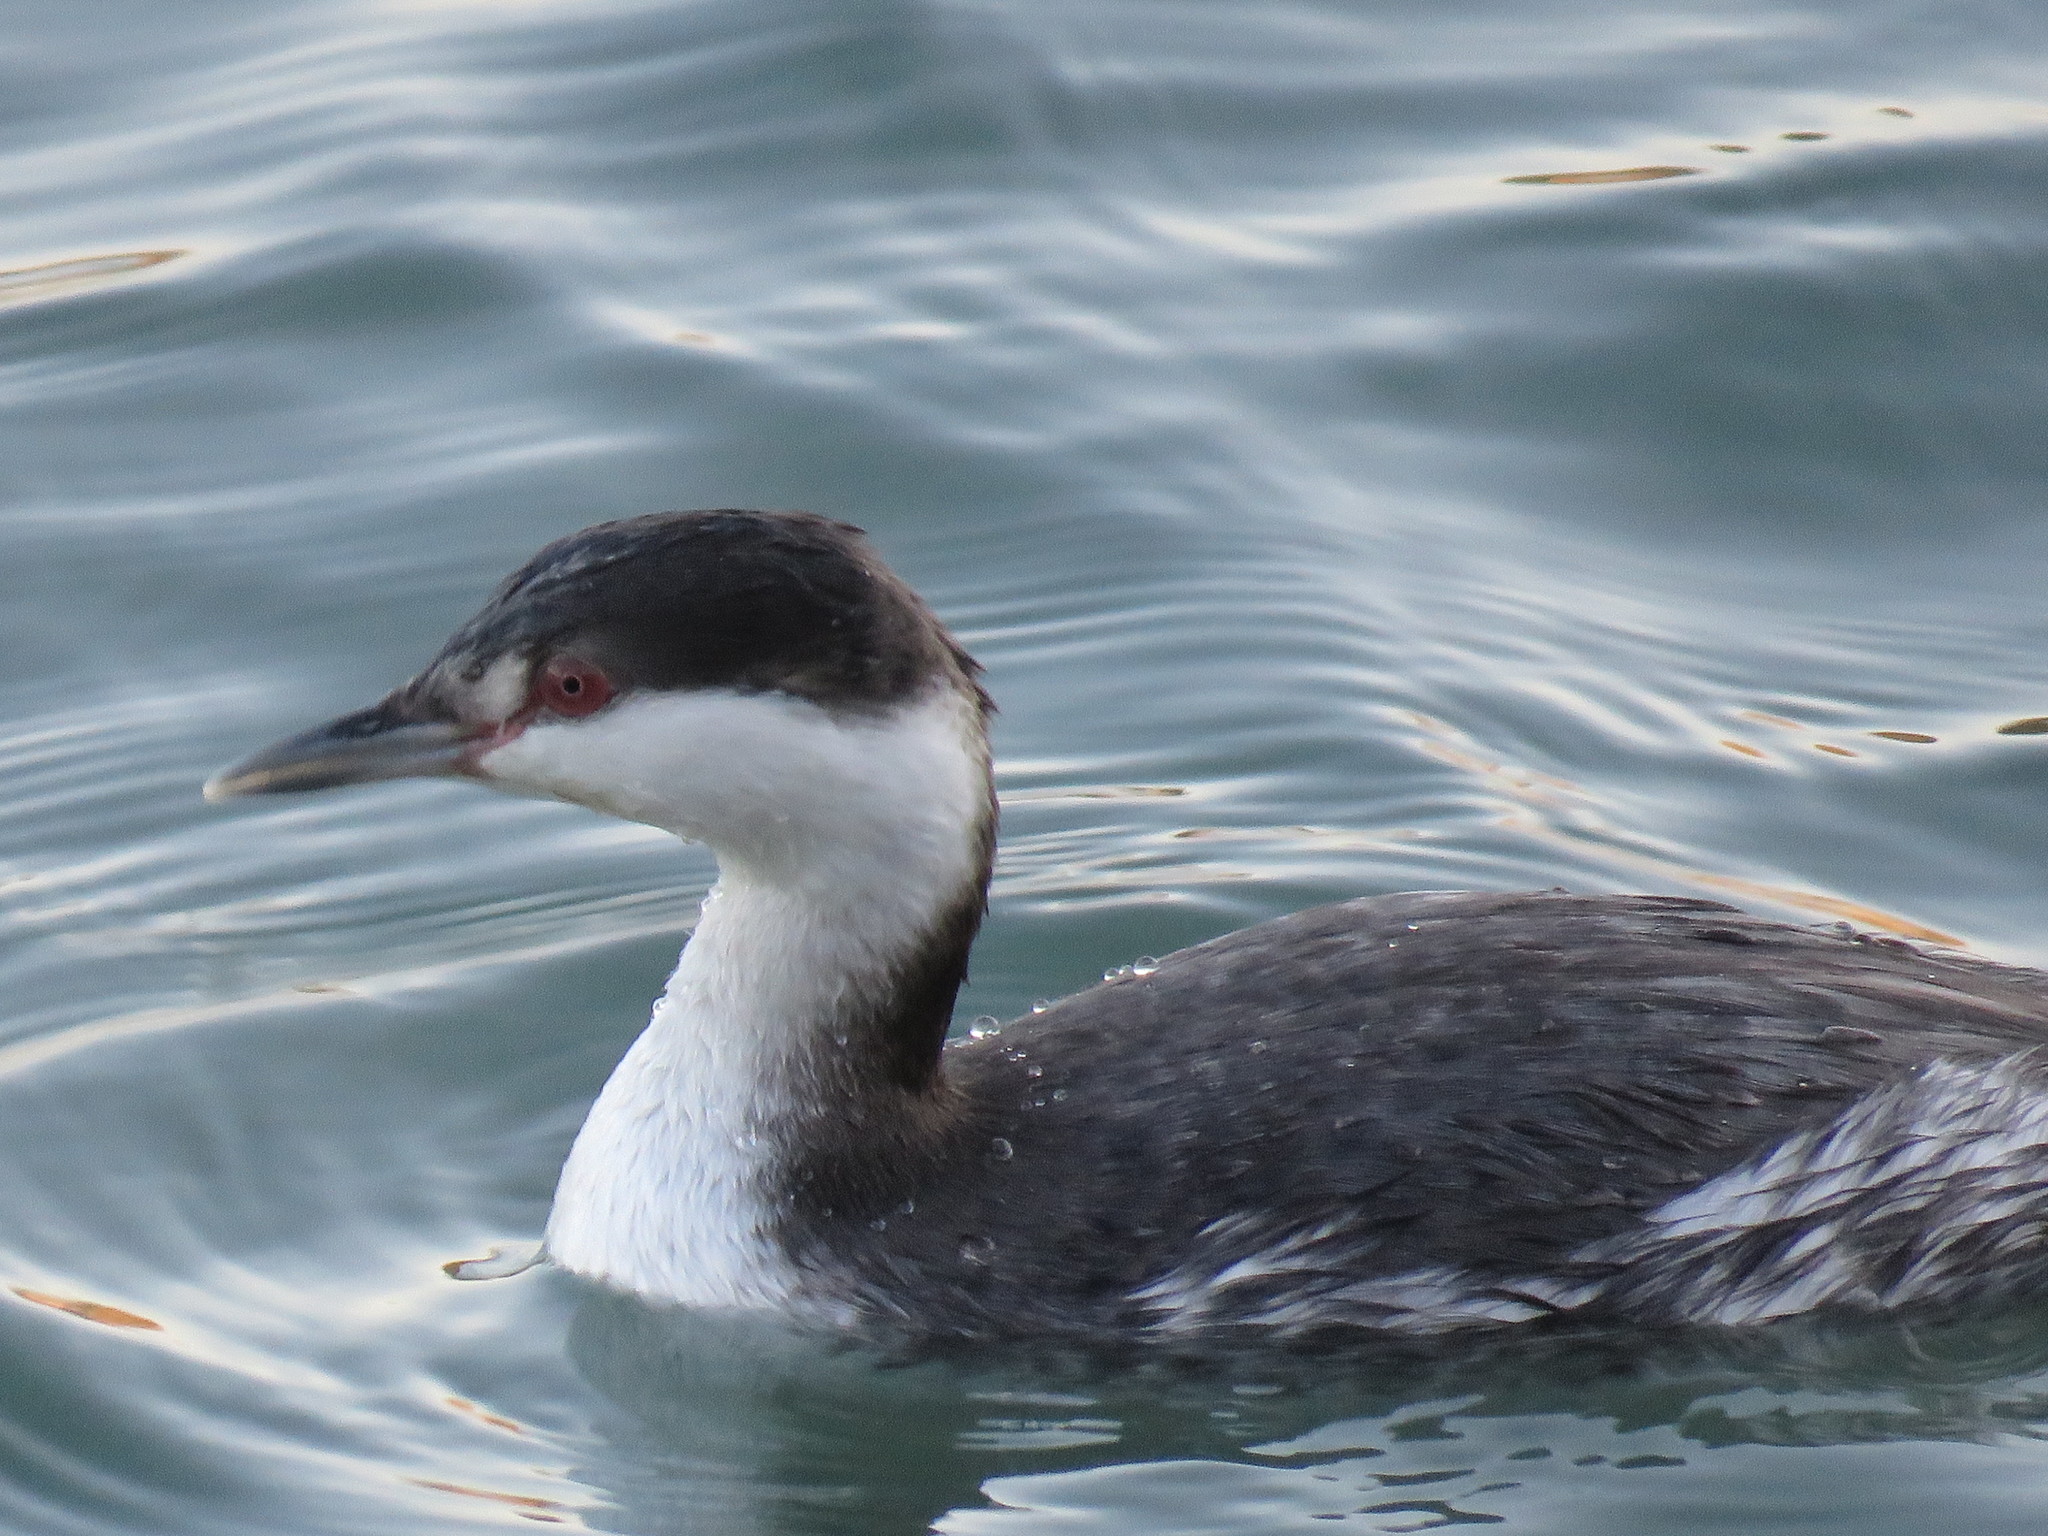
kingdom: Animalia
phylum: Chordata
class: Aves
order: Podicipediformes
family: Podicipedidae
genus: Podiceps
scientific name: Podiceps auritus
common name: Horned grebe
